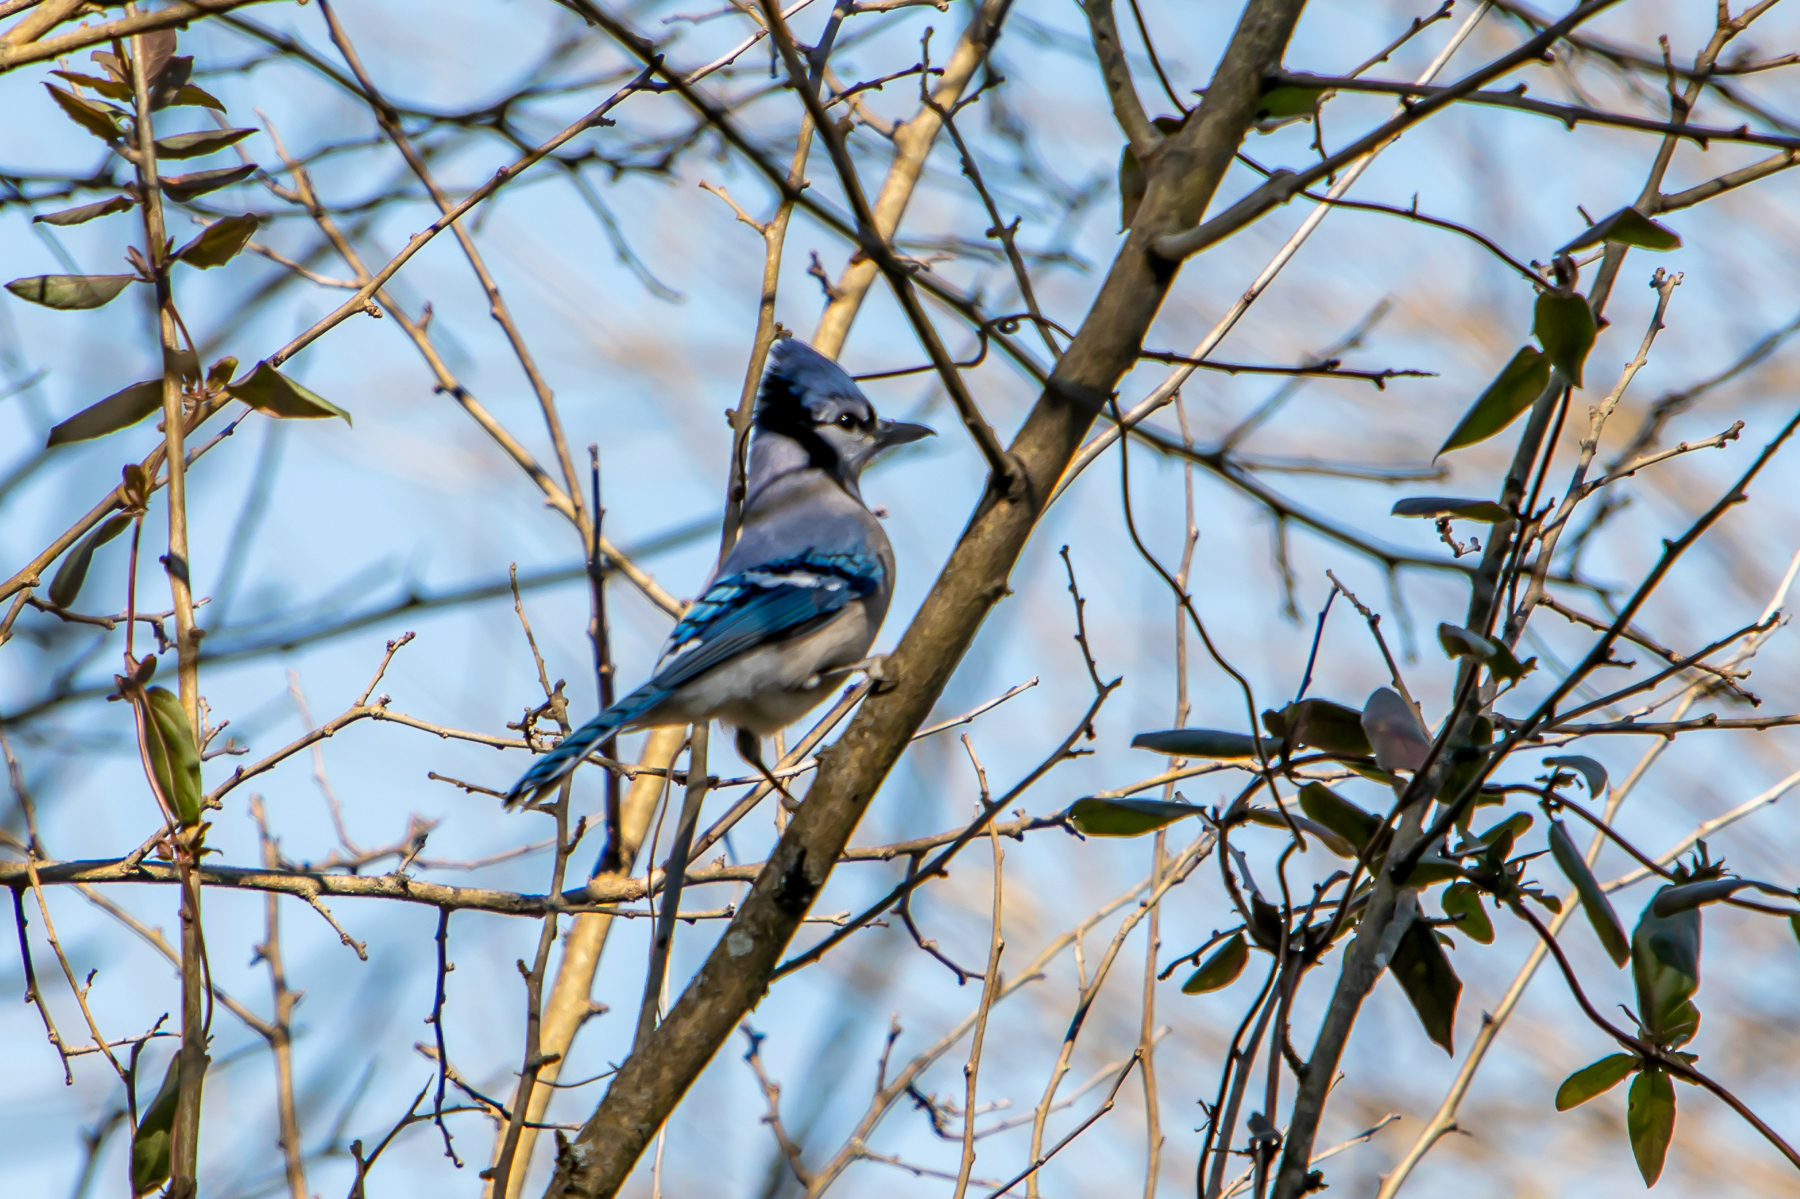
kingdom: Animalia
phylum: Chordata
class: Aves
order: Passeriformes
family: Corvidae
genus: Cyanocitta
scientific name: Cyanocitta cristata
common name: Blue jay
